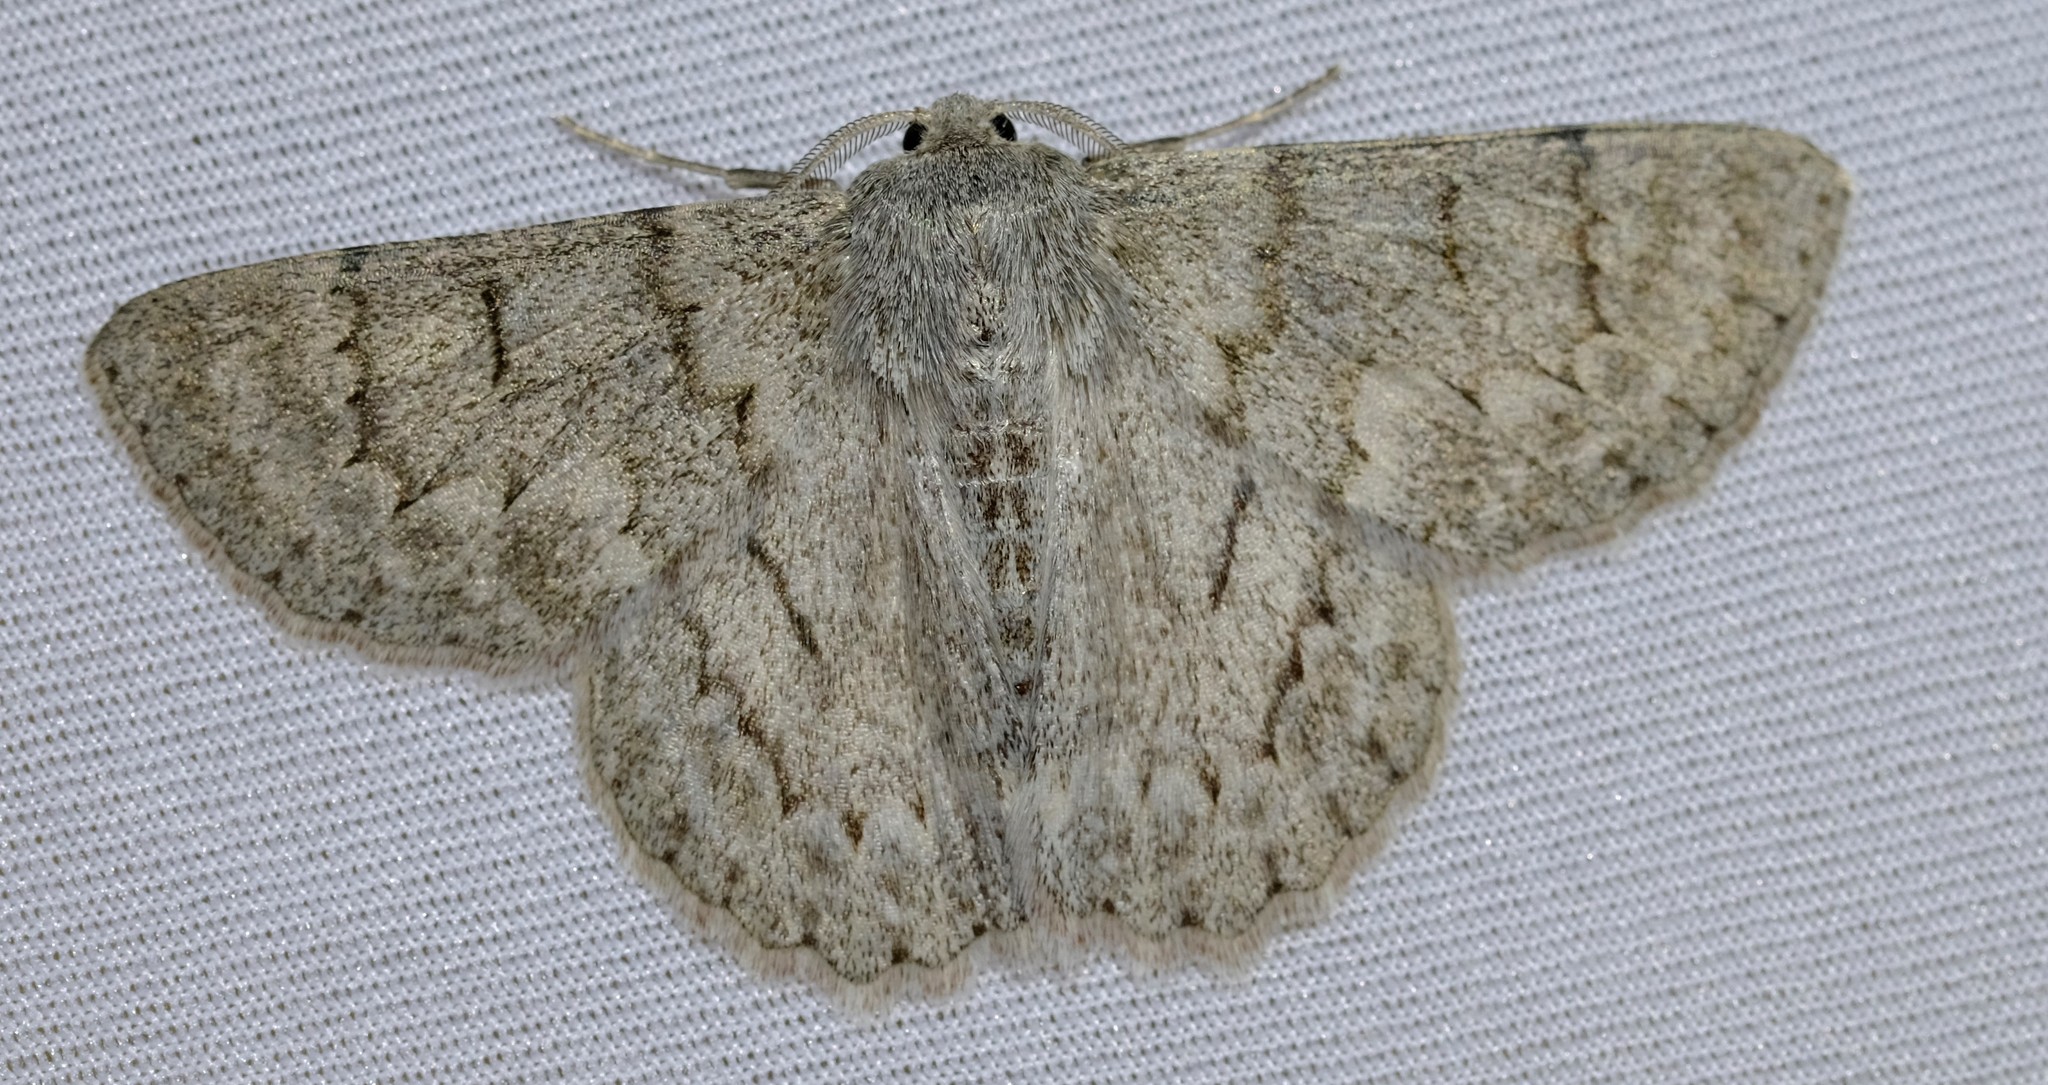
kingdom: Animalia
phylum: Arthropoda
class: Insecta
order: Lepidoptera
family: Geometridae
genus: Crypsiphona
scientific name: Crypsiphona ocultaria
